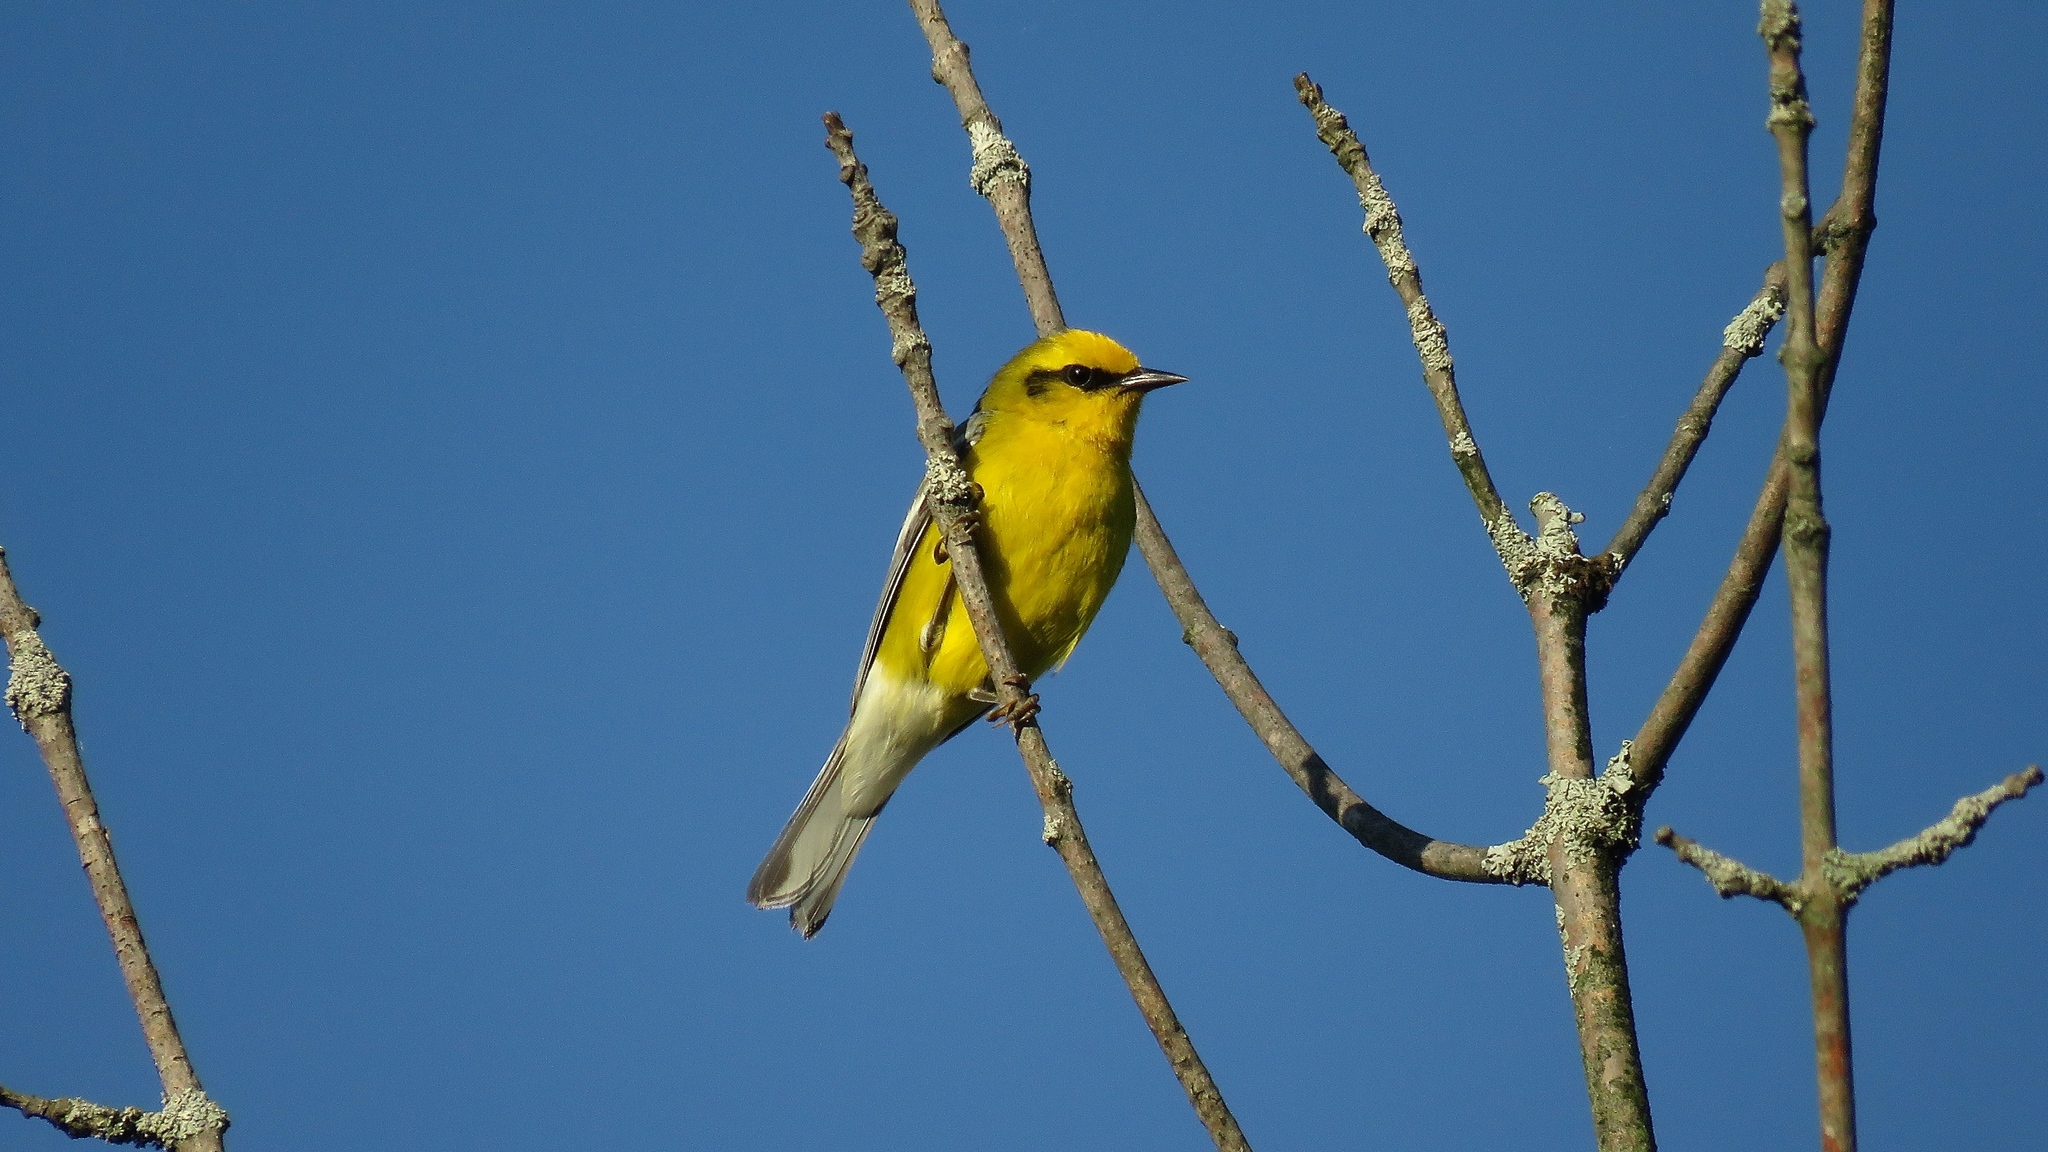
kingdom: Animalia
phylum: Chordata
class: Aves
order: Passeriformes
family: Parulidae
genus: Vermivora
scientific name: Vermivora cyanoptera
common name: Blue-winged warbler
